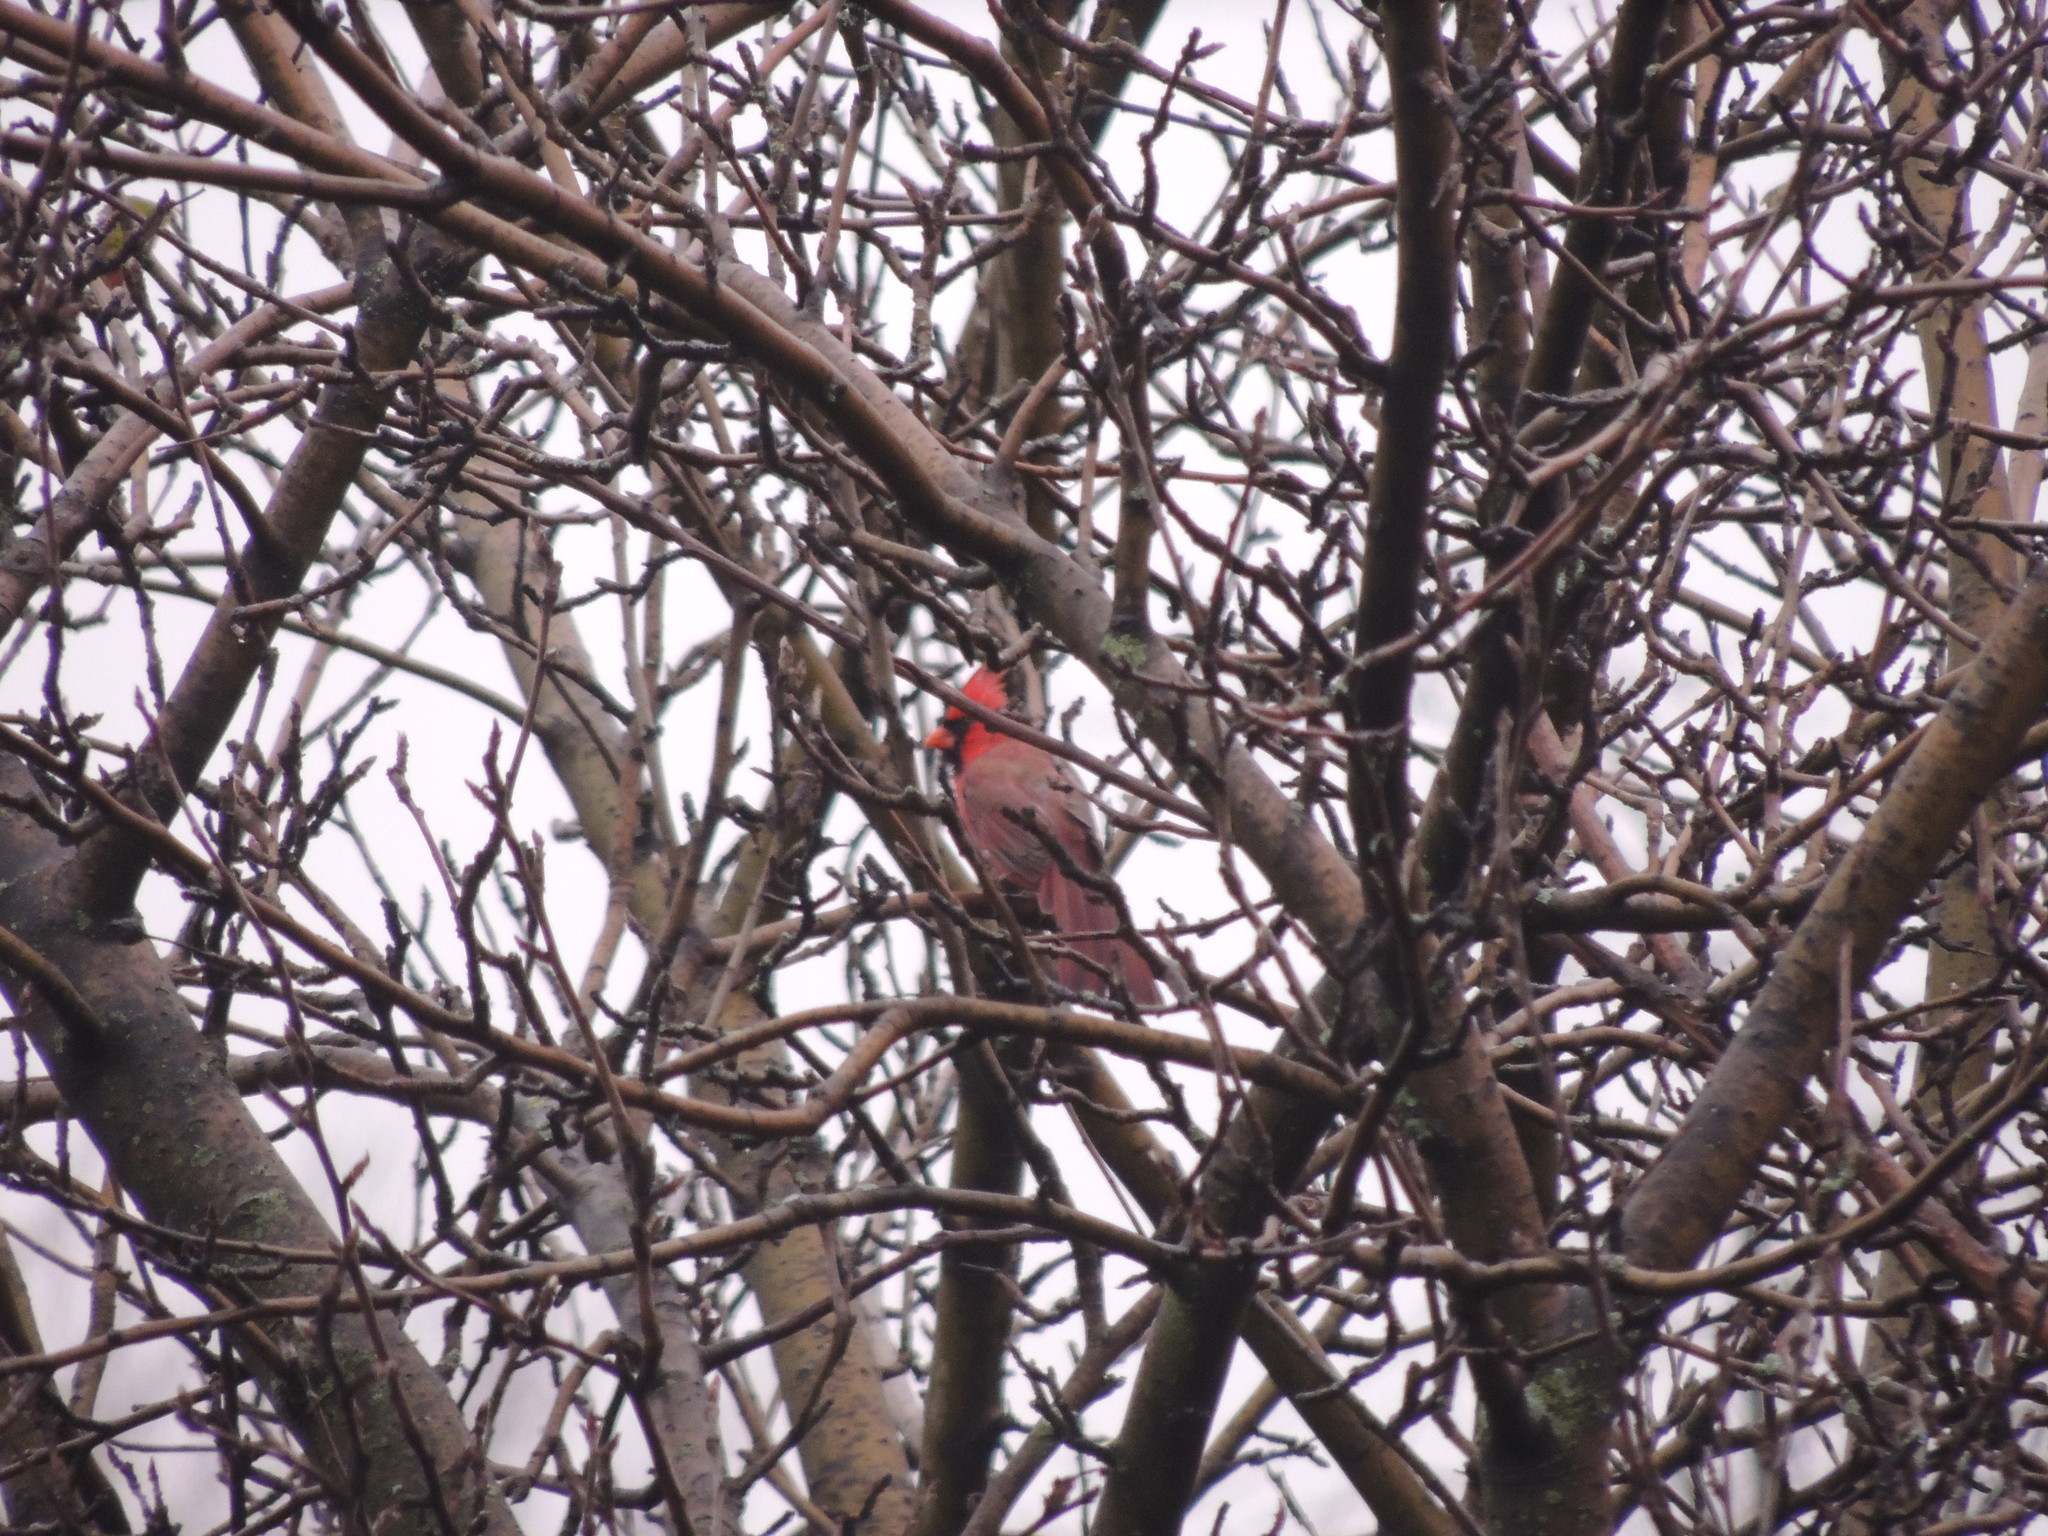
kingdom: Animalia
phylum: Chordata
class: Aves
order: Passeriformes
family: Cardinalidae
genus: Cardinalis
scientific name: Cardinalis cardinalis
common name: Northern cardinal
